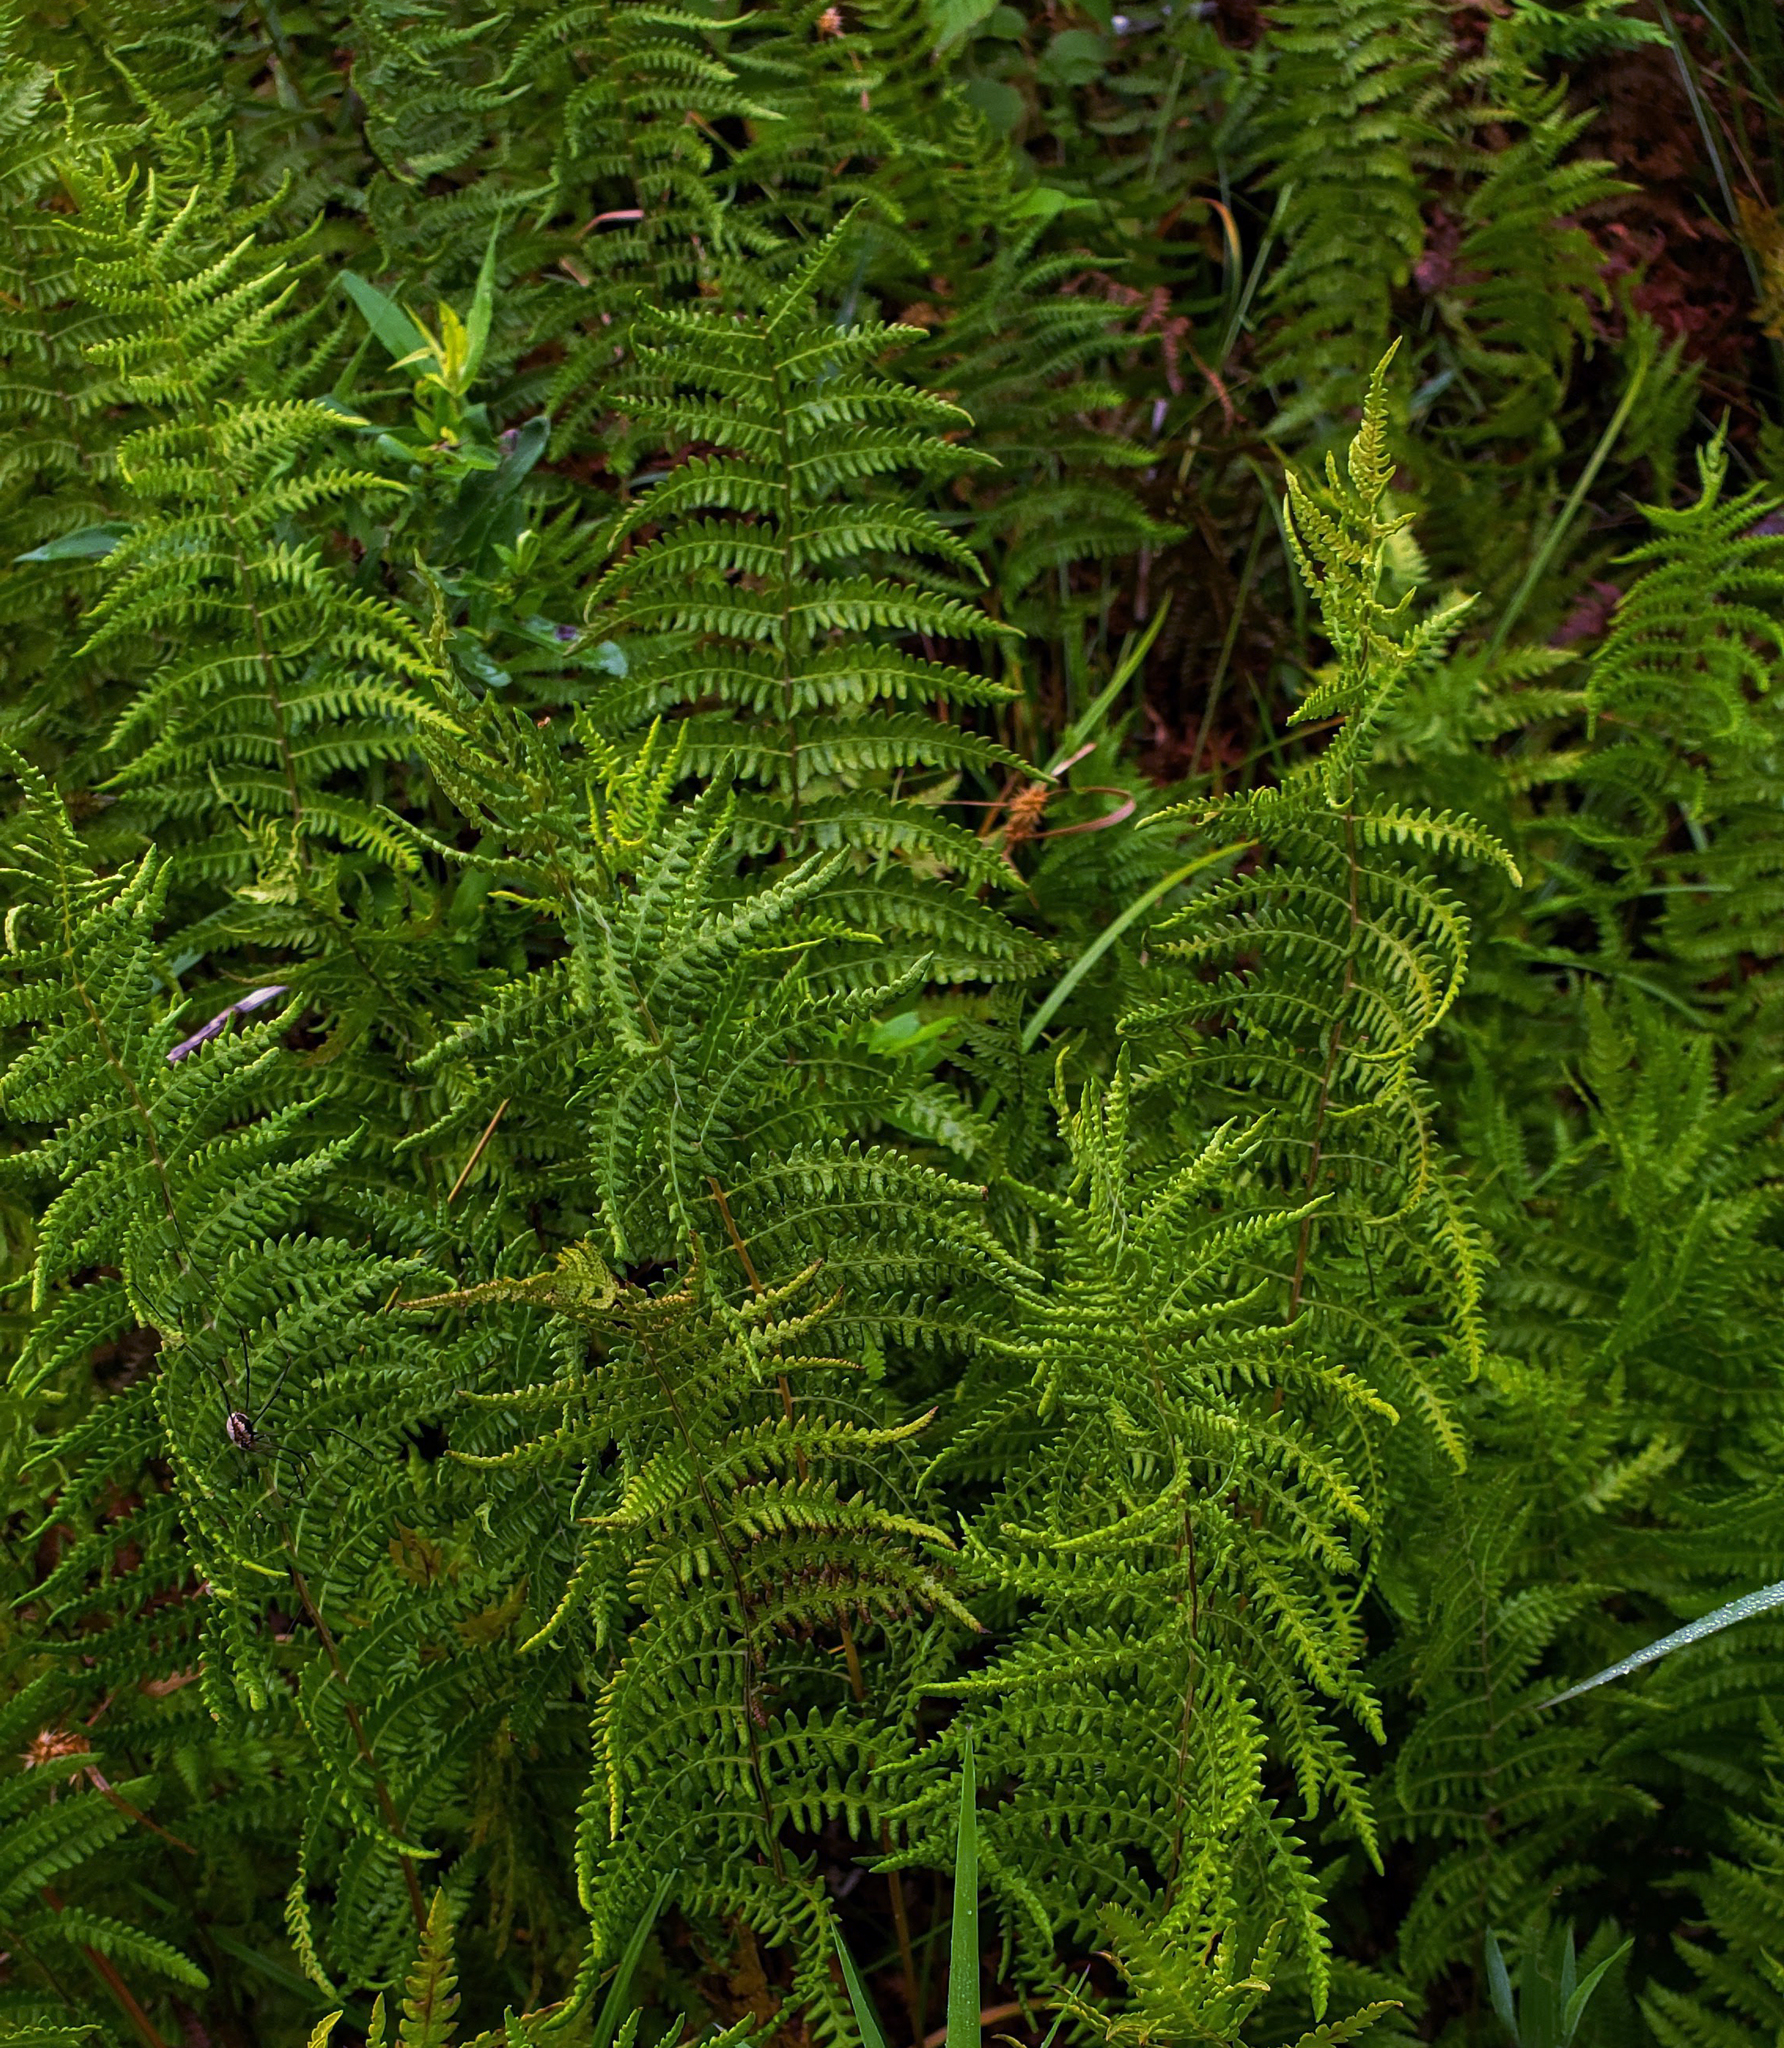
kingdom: Plantae
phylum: Tracheophyta
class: Polypodiopsida
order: Polypodiales
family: Thelypteridaceae
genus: Thelypteris
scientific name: Thelypteris palustris
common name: Marsh fern
